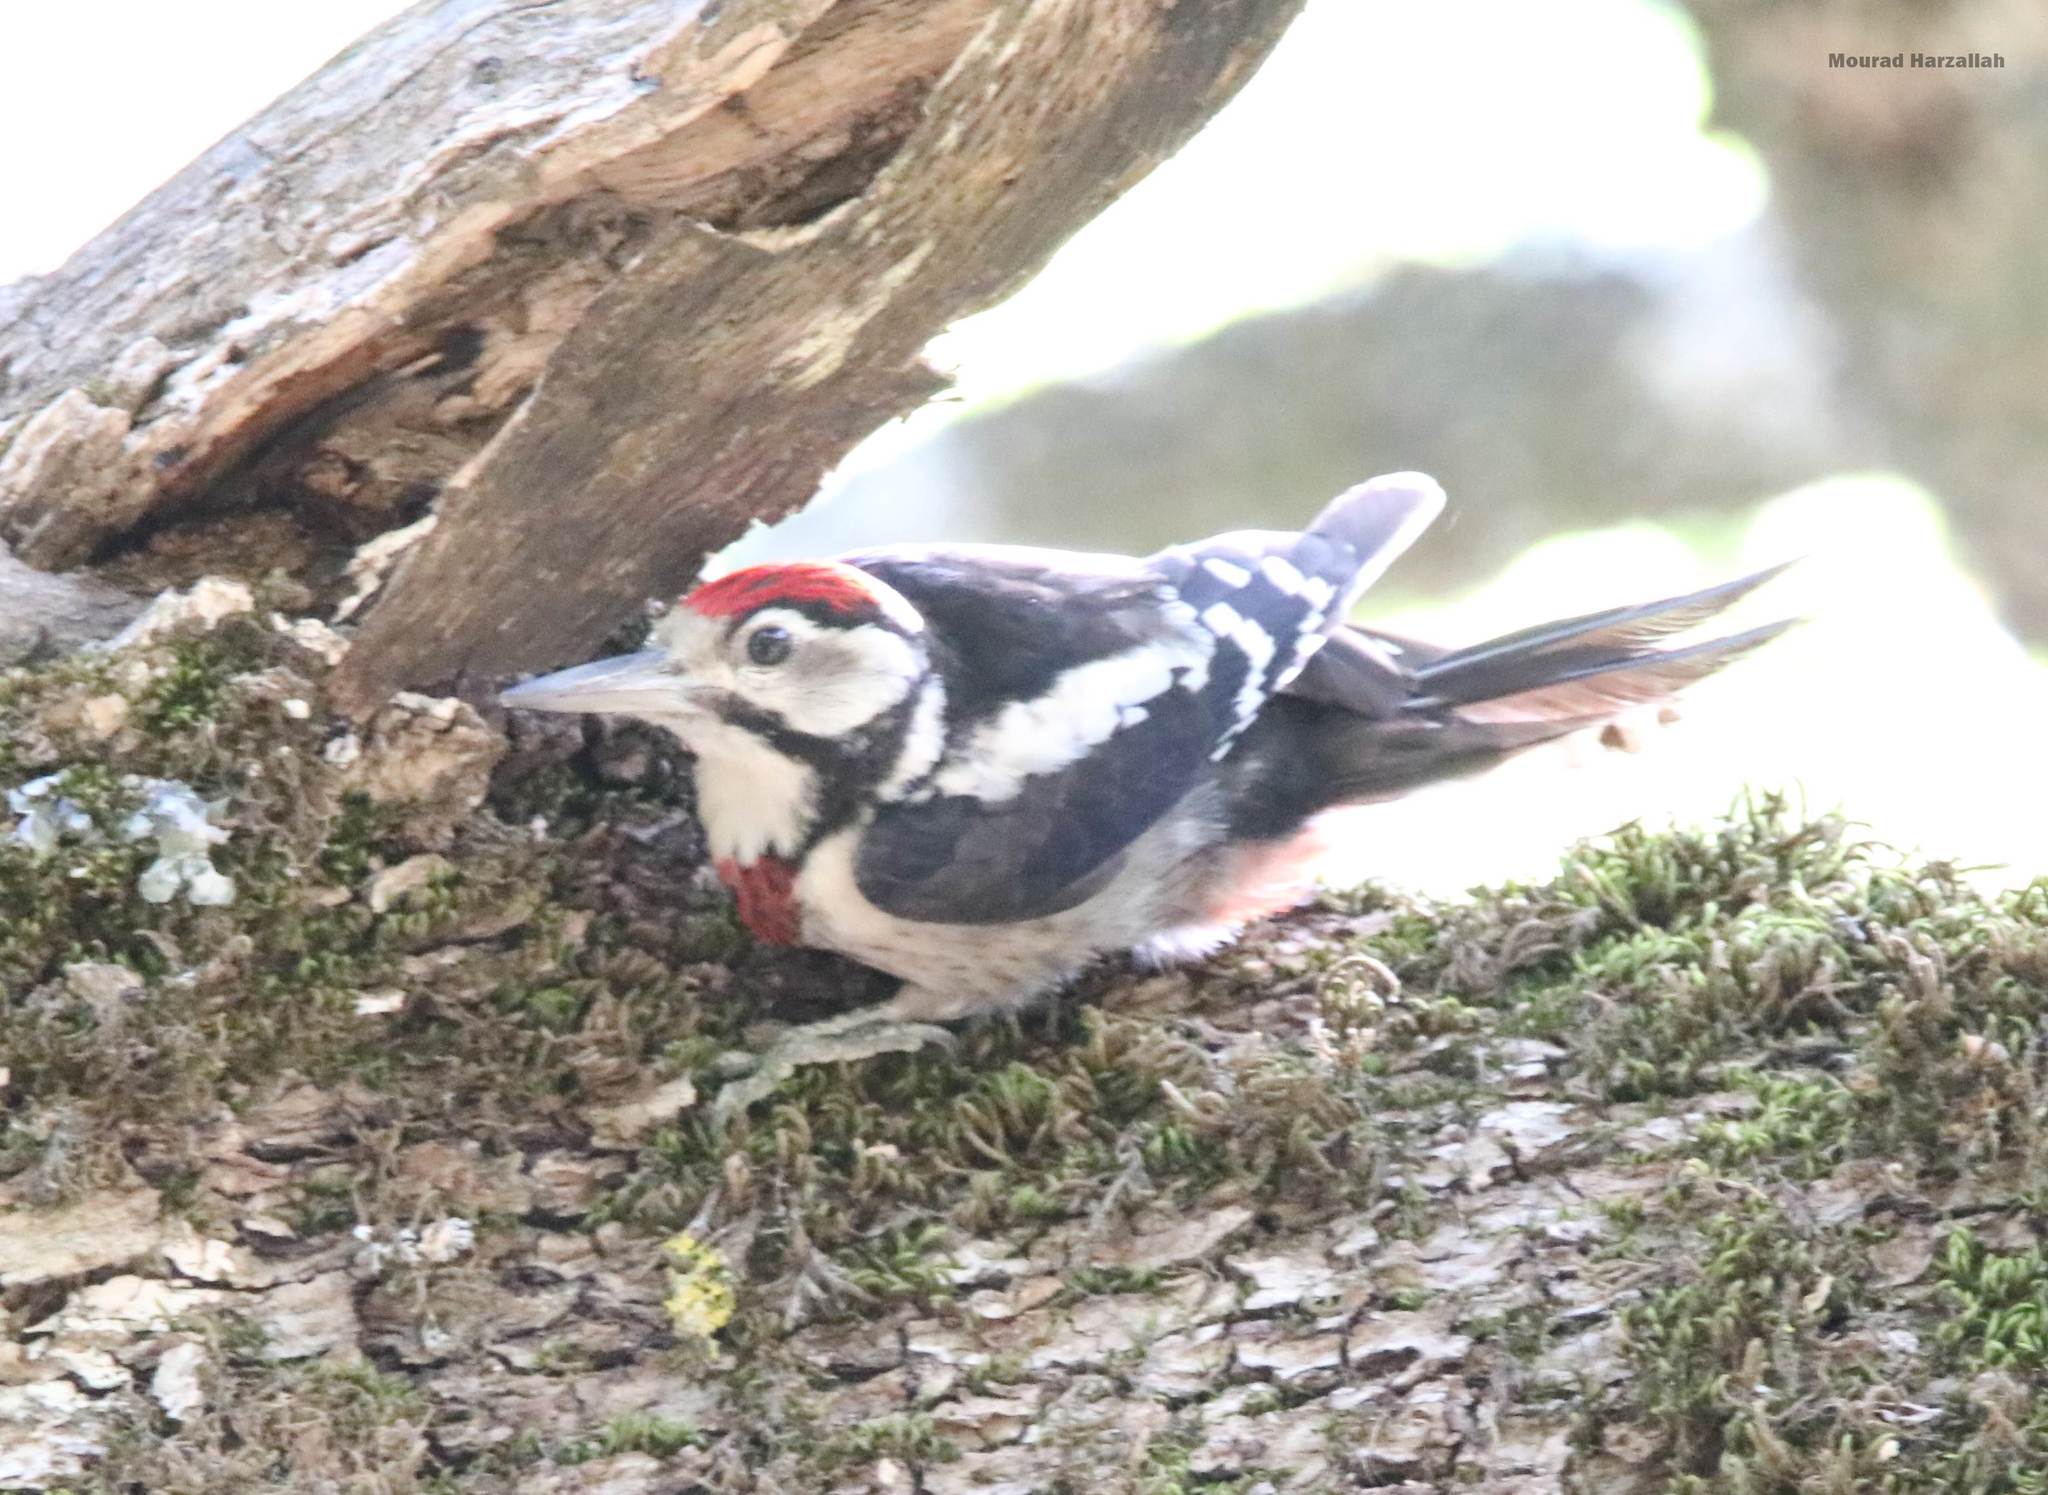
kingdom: Animalia
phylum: Chordata
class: Aves
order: Piciformes
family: Picidae
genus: Dendrocopos
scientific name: Dendrocopos major
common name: Great spotted woodpecker
